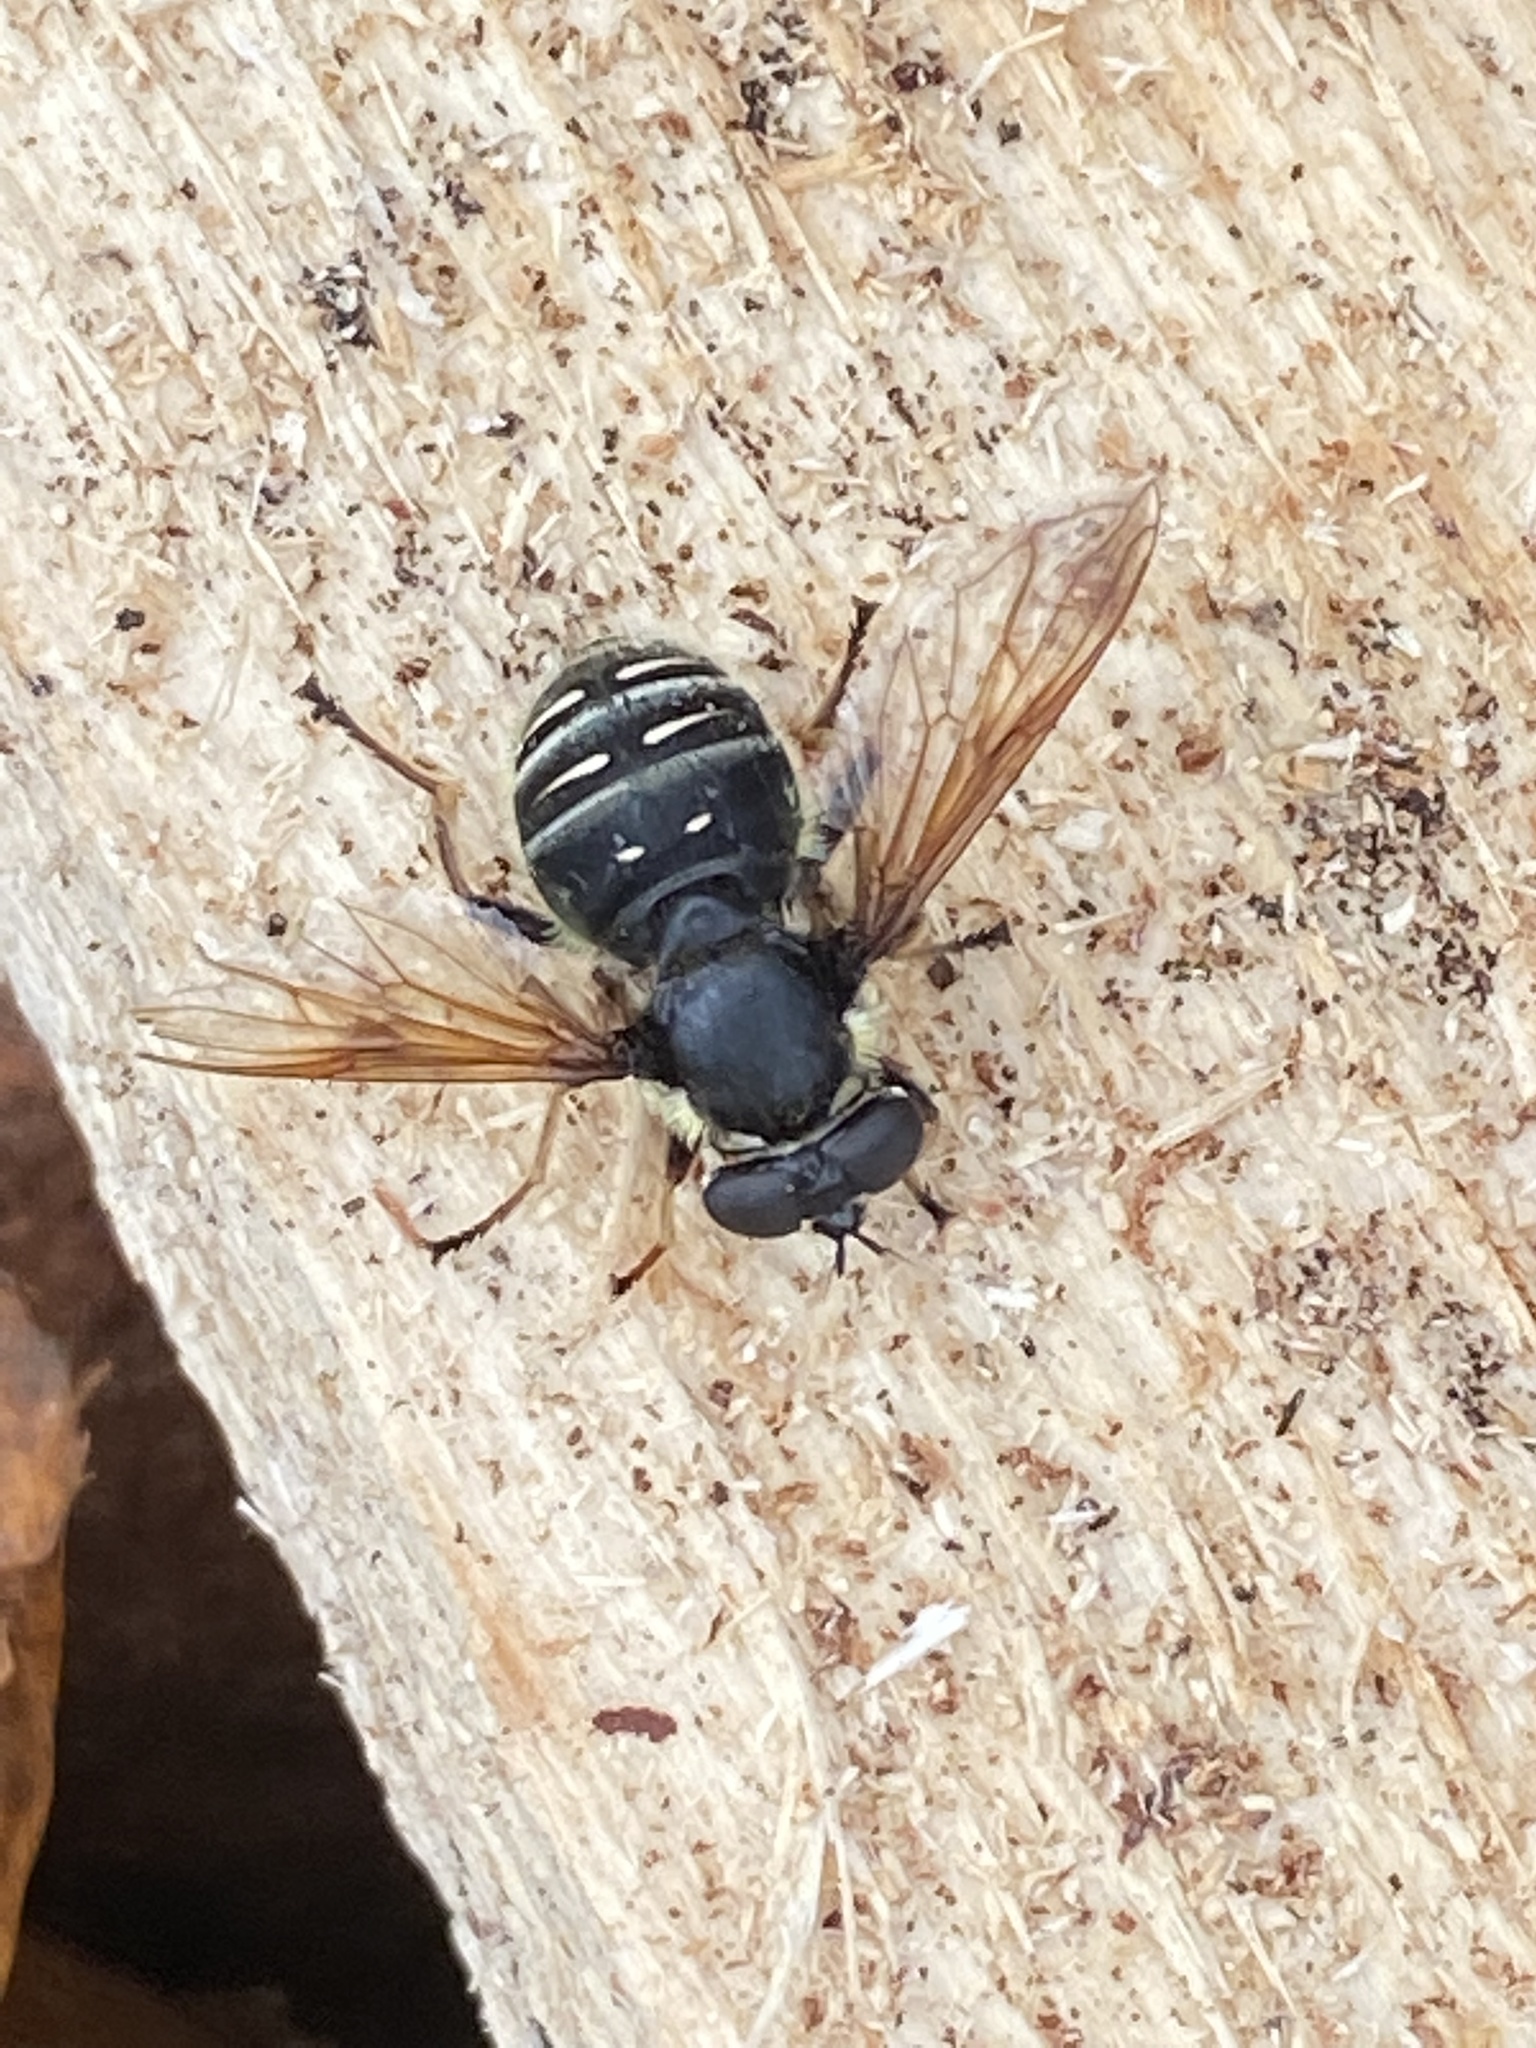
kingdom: Animalia
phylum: Arthropoda
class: Insecta
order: Diptera
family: Syrphidae
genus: Sericomyia
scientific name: Sericomyia militaris
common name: Narrow-banded pond fly
